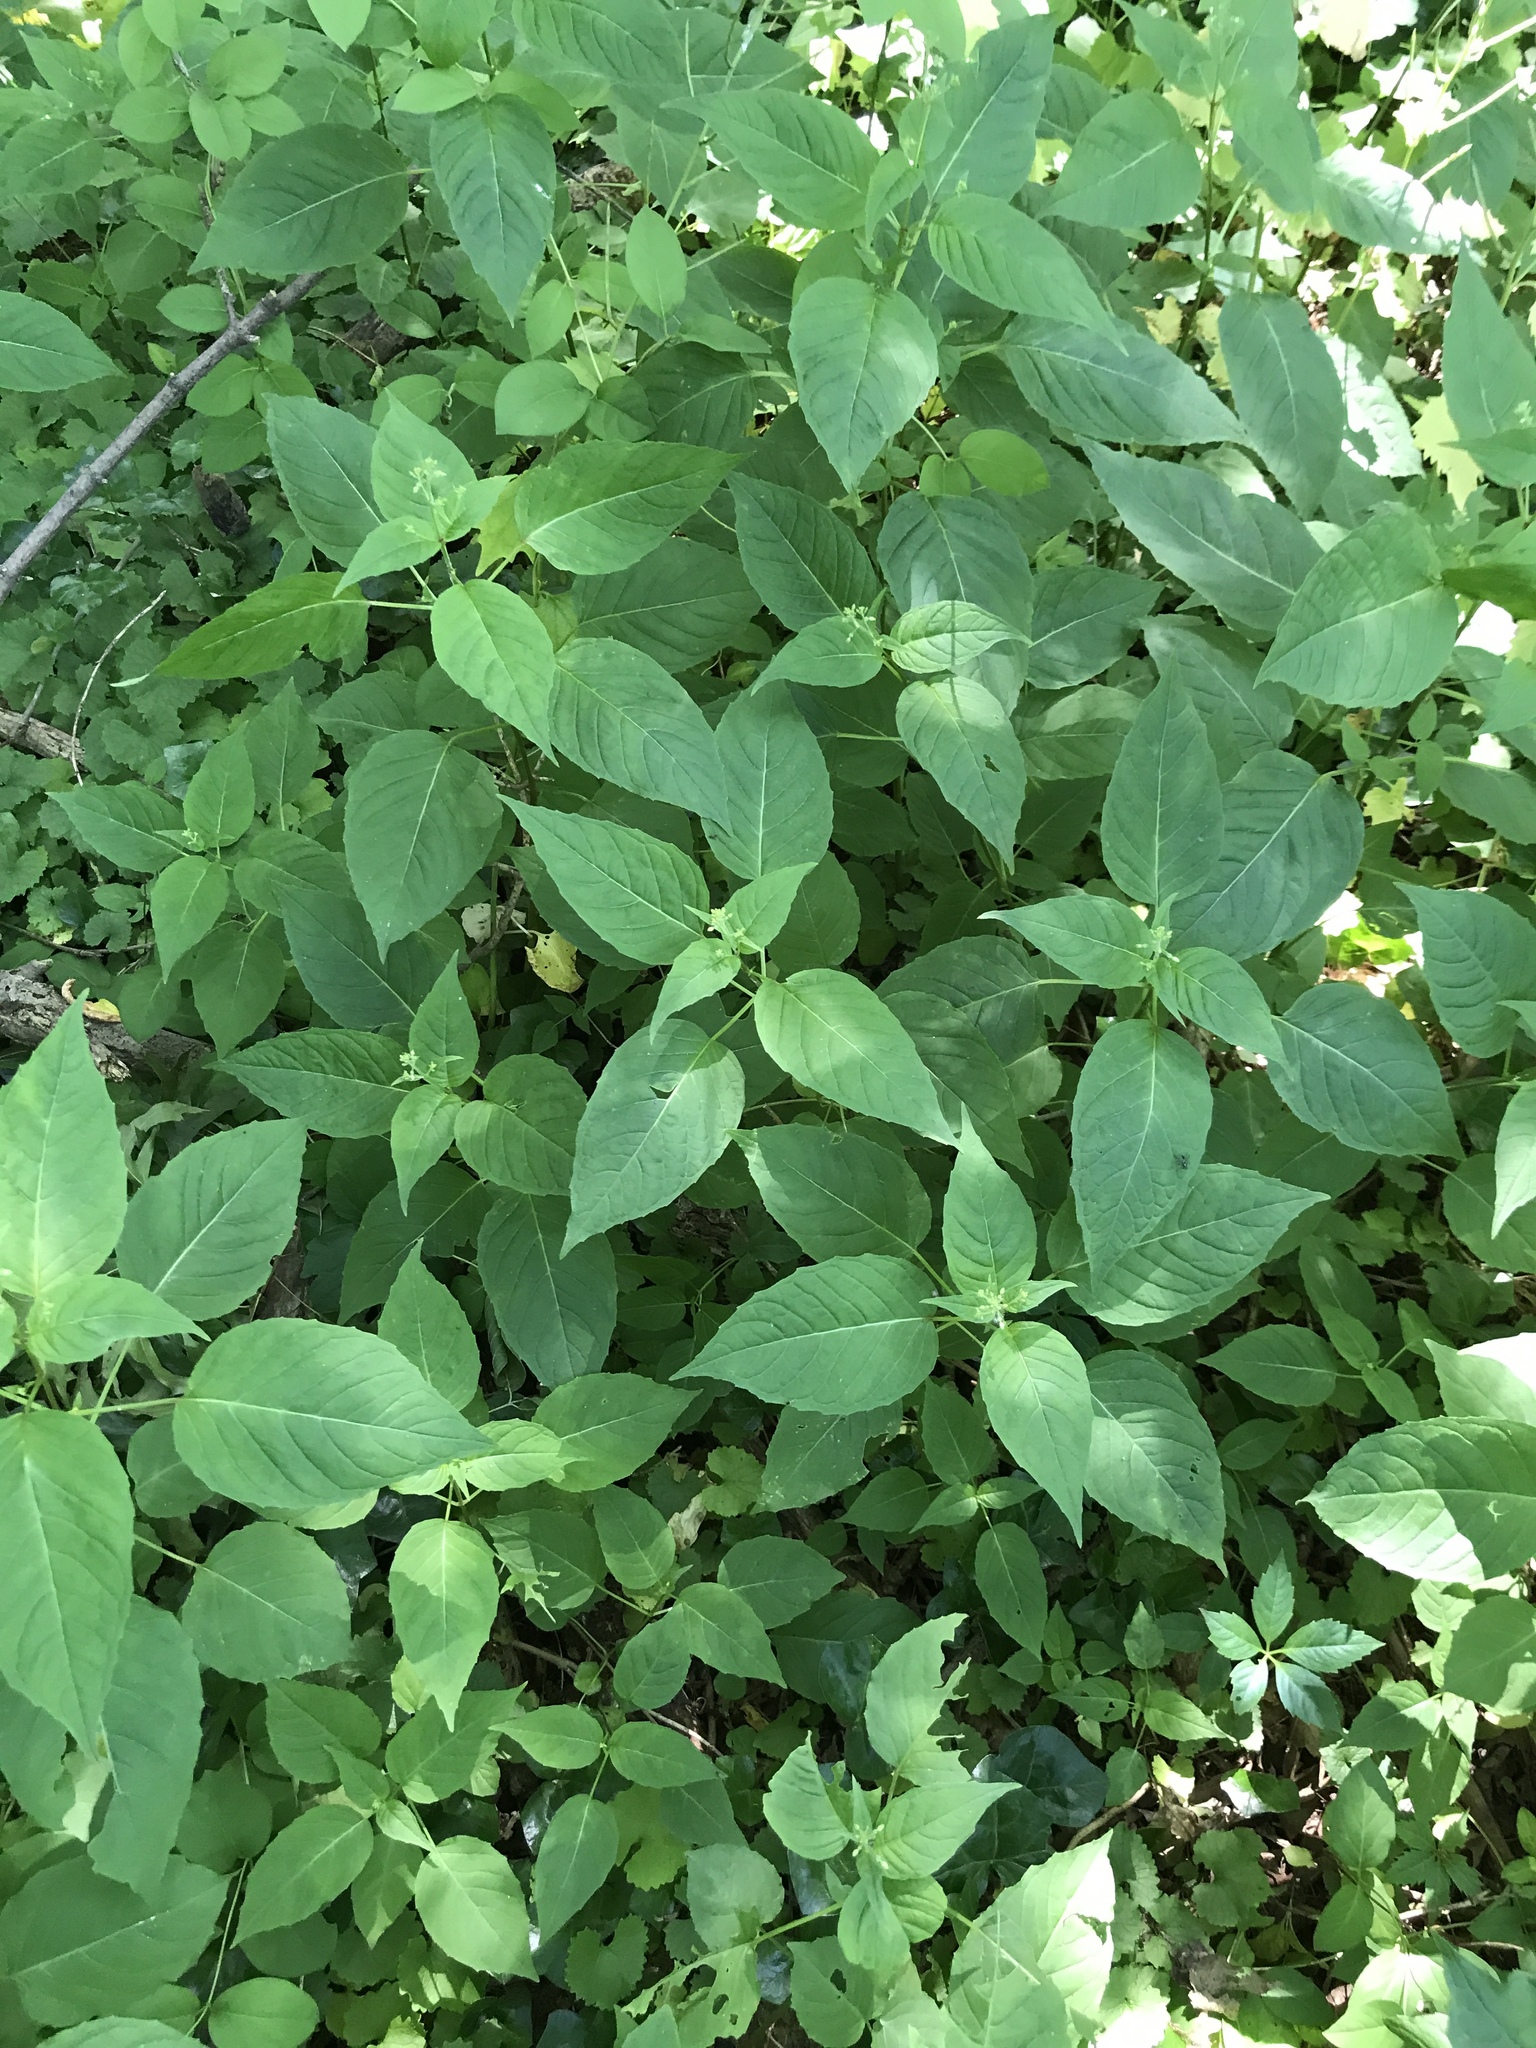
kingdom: Plantae
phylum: Tracheophyta
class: Magnoliopsida
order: Myrtales
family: Onagraceae
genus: Circaea
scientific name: Circaea canadensis
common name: Broad-leaved enchanter's nightshade
